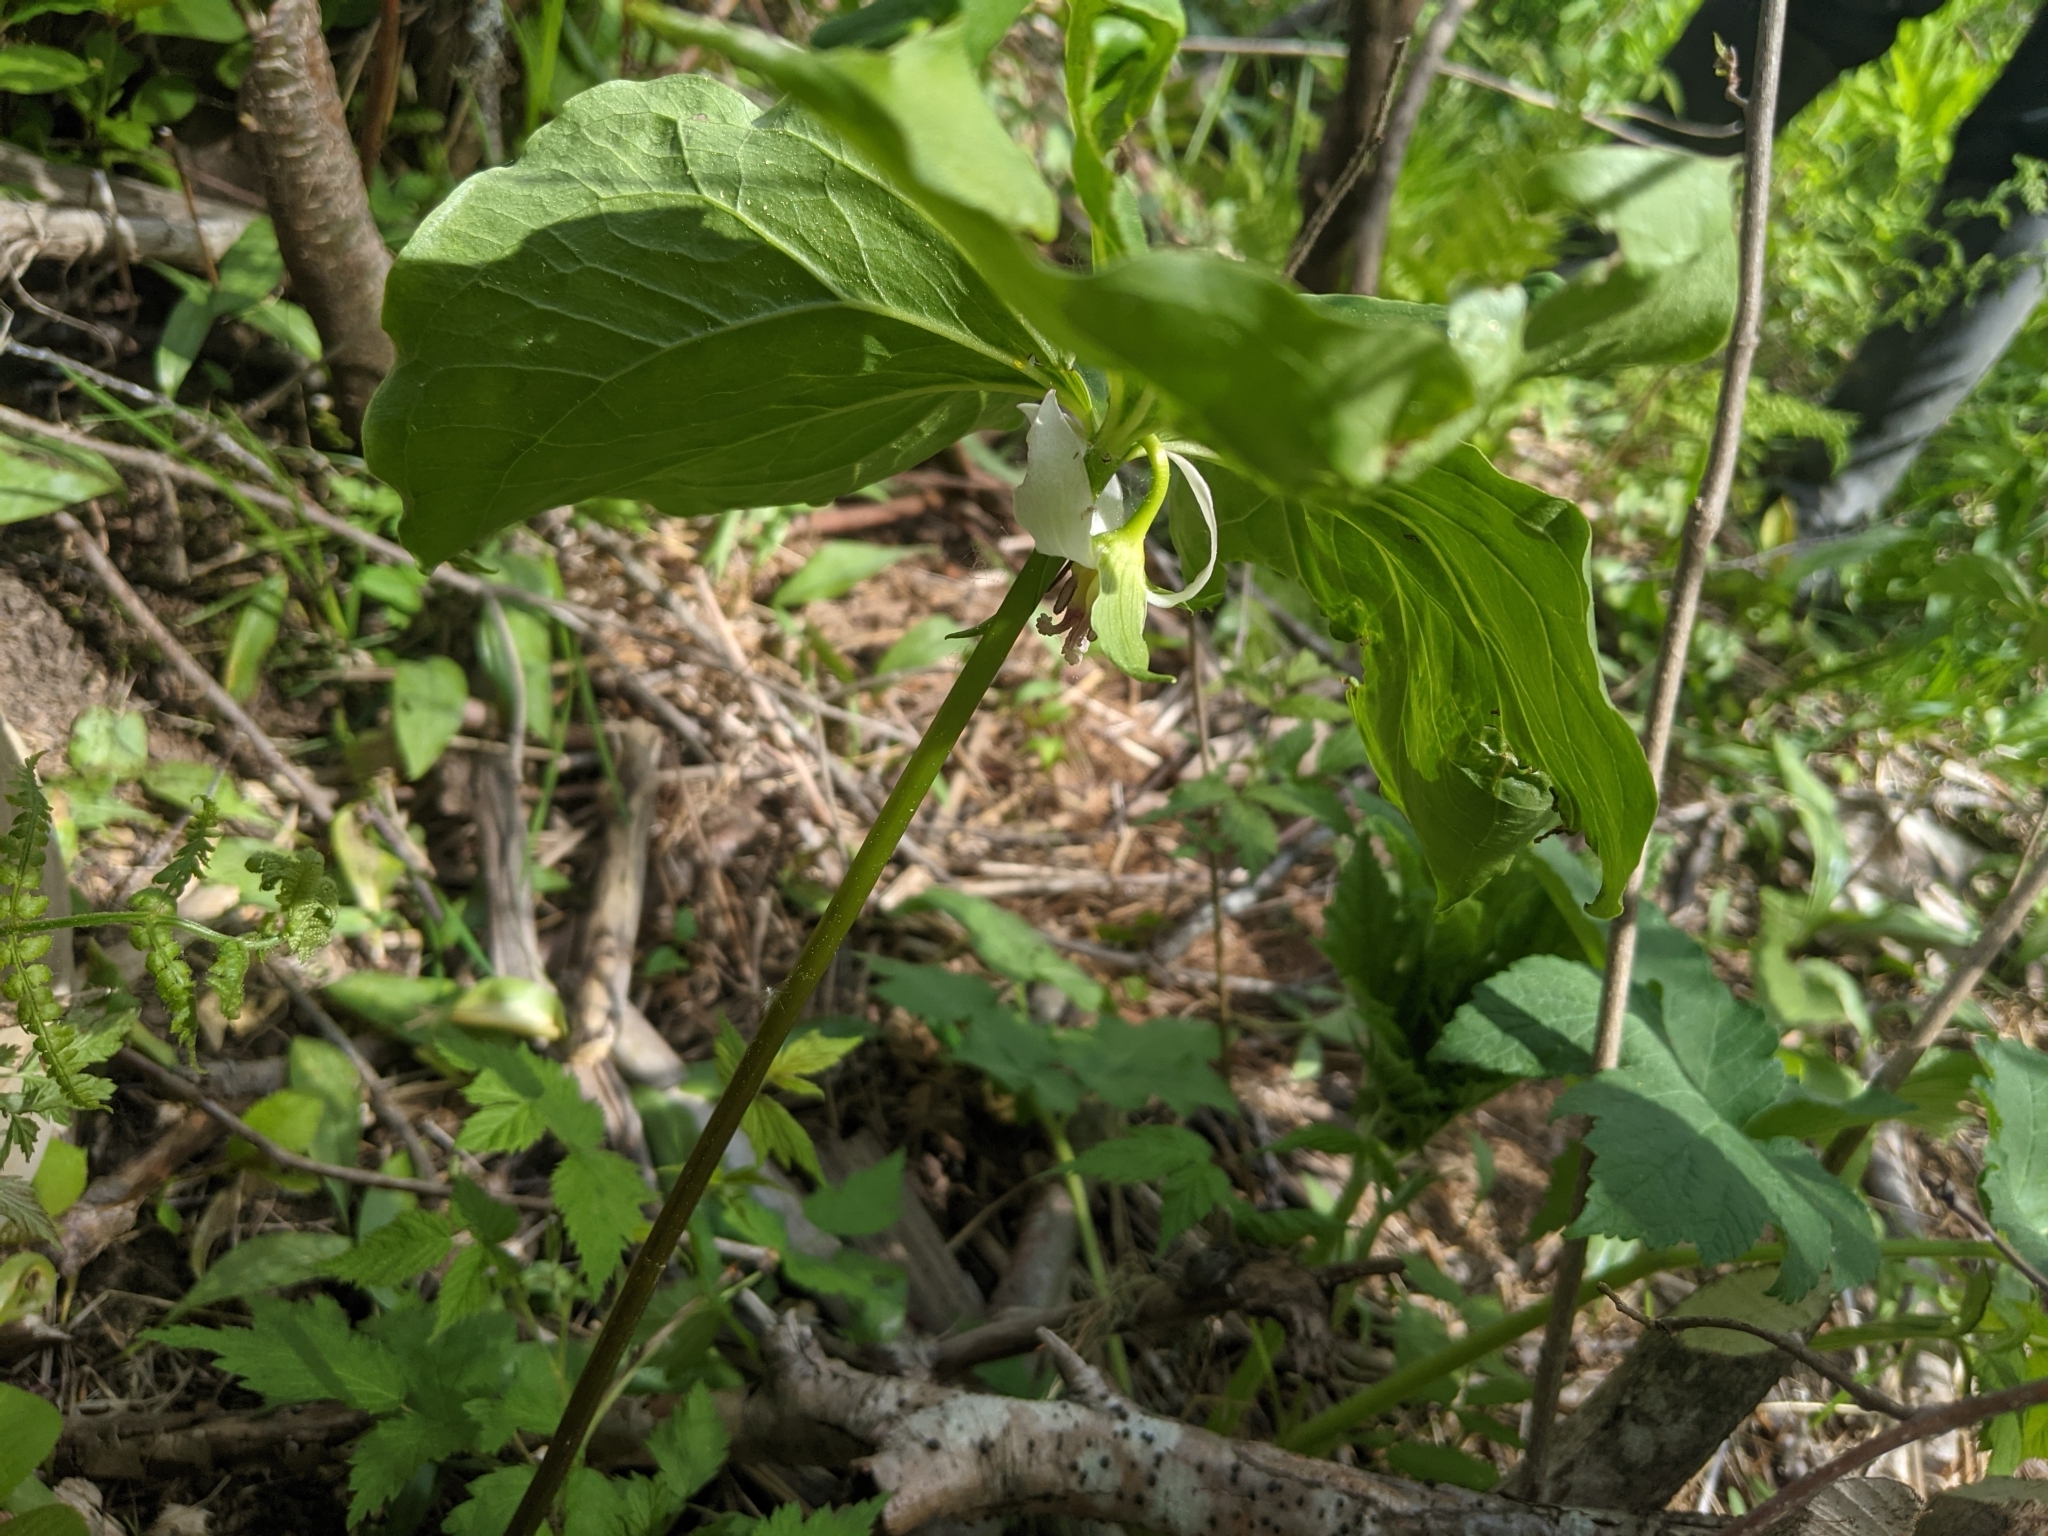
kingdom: Plantae
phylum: Tracheophyta
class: Liliopsida
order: Liliales
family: Melanthiaceae
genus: Trillium
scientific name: Trillium cernuum
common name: Nodding trillium
